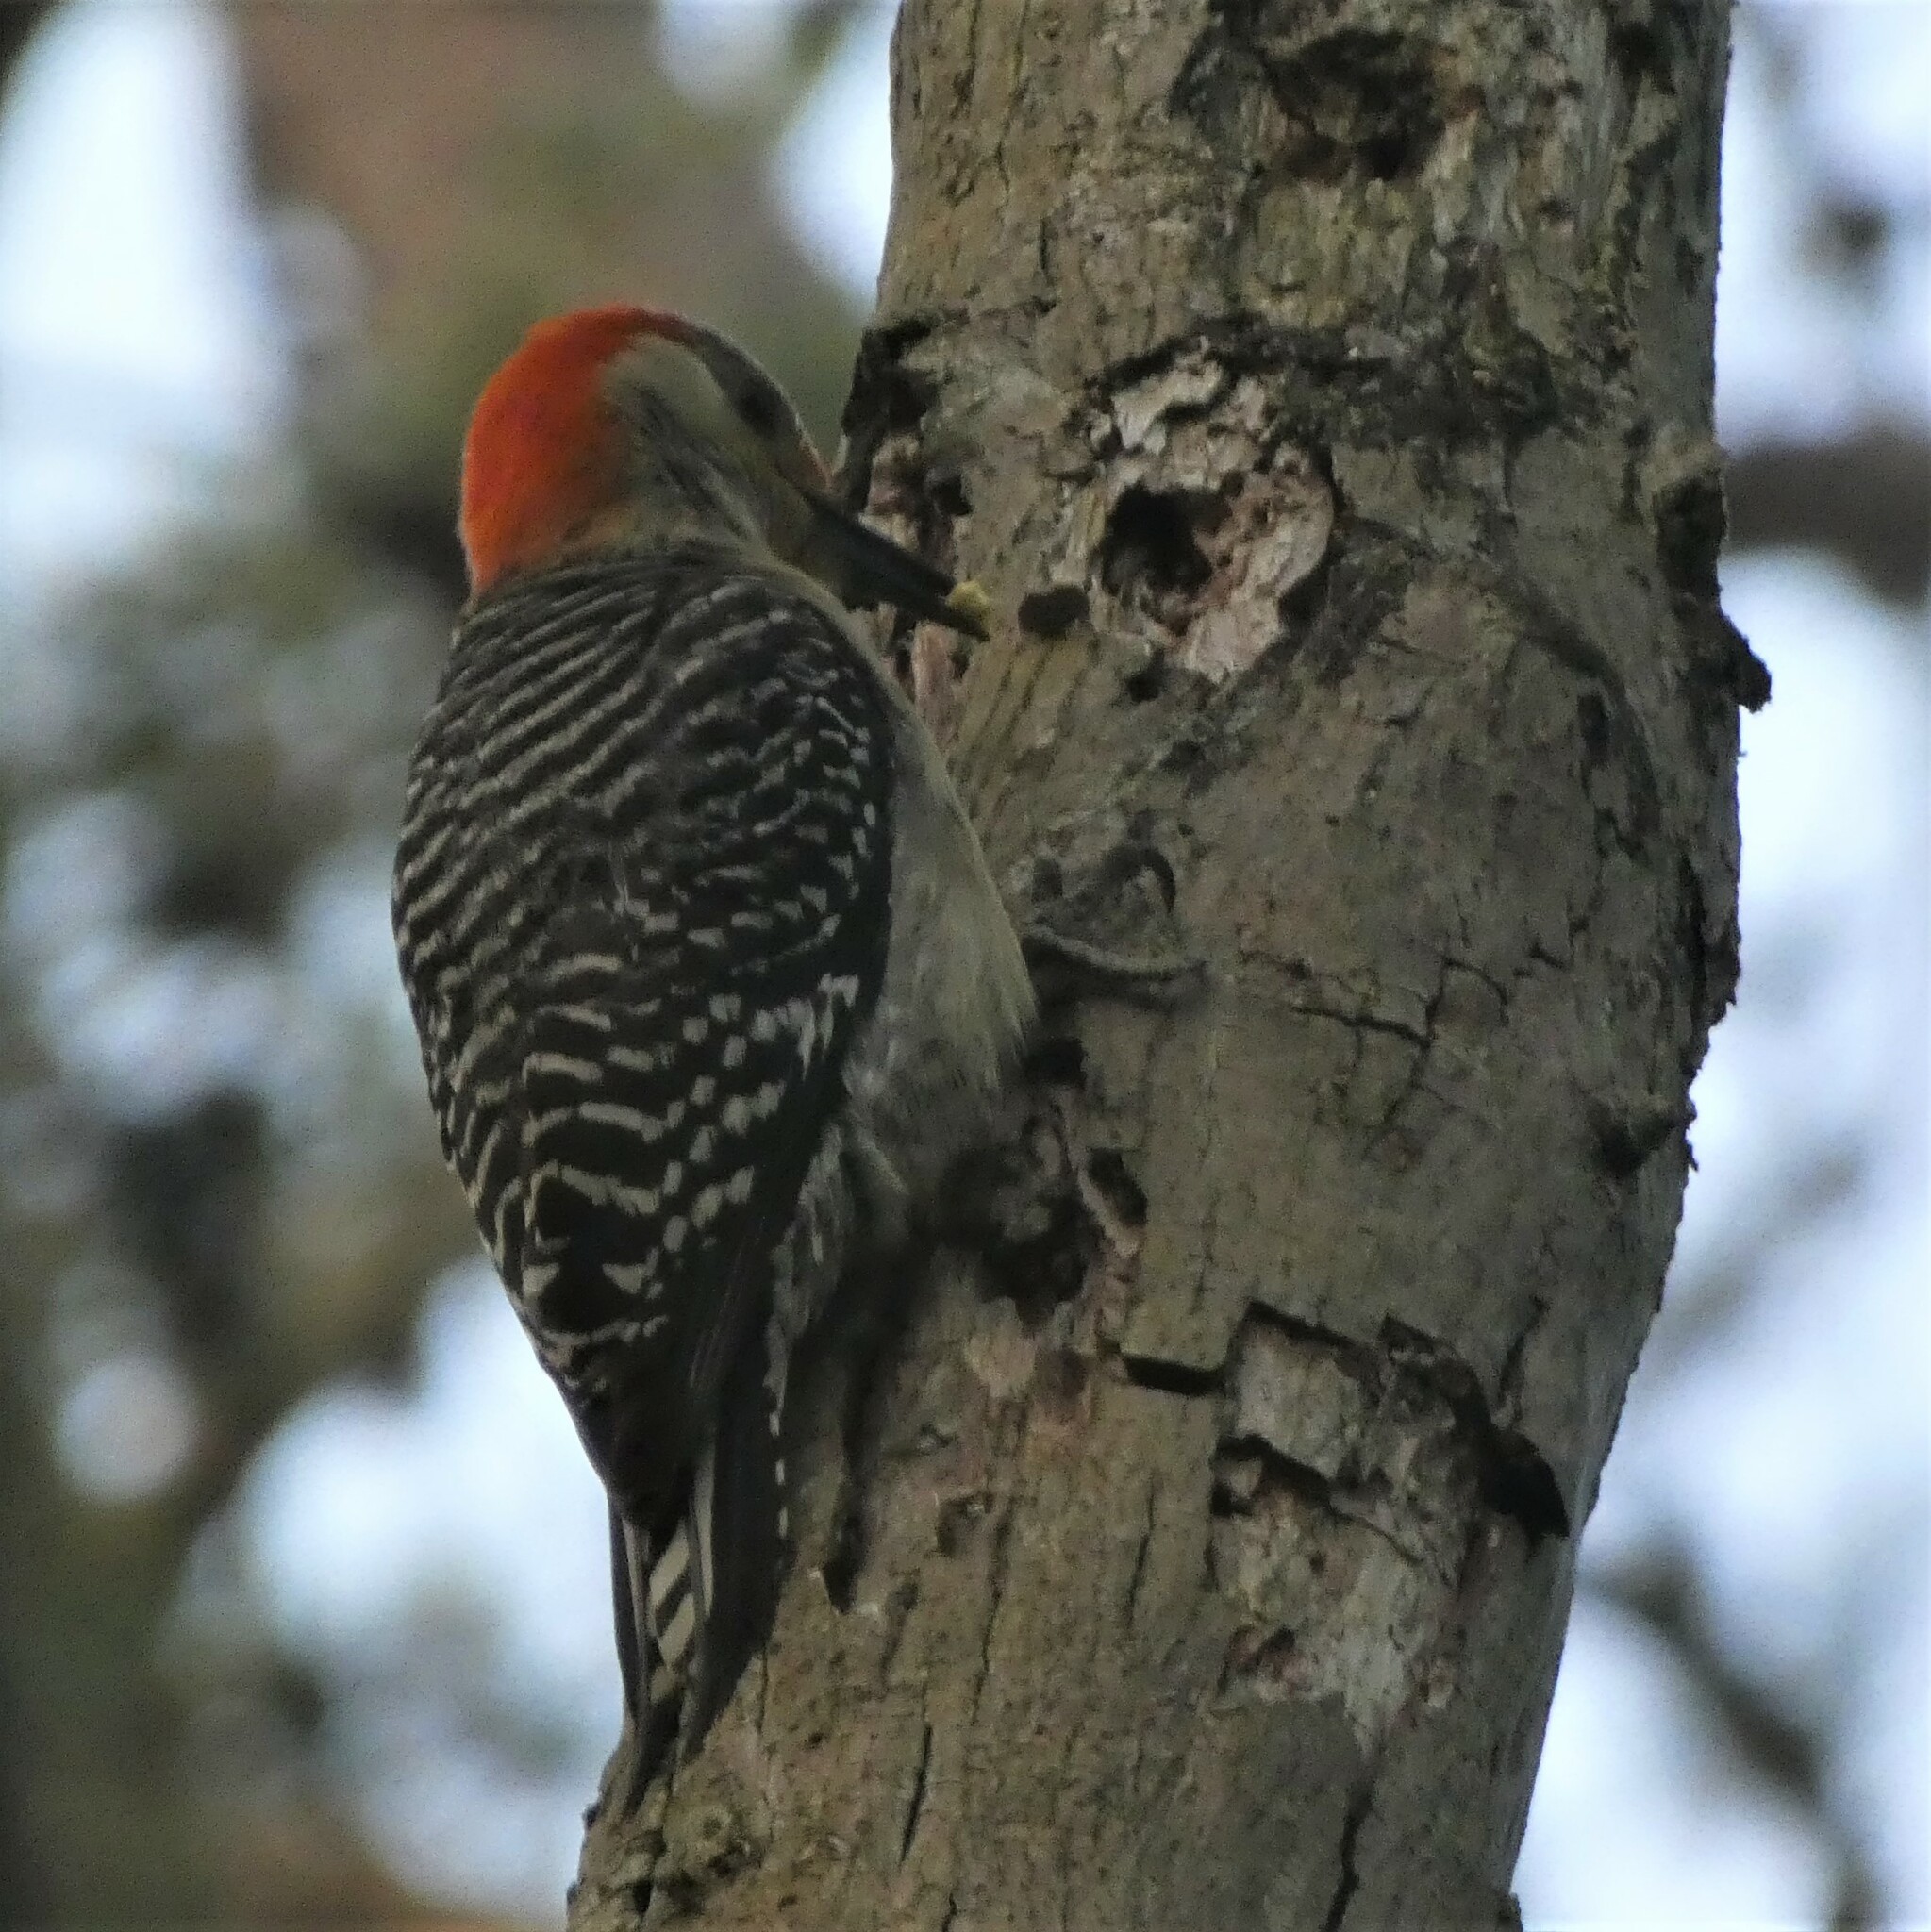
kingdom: Animalia
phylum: Chordata
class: Aves
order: Piciformes
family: Picidae
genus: Melanerpes
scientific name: Melanerpes carolinus
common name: Red-bellied woodpecker
